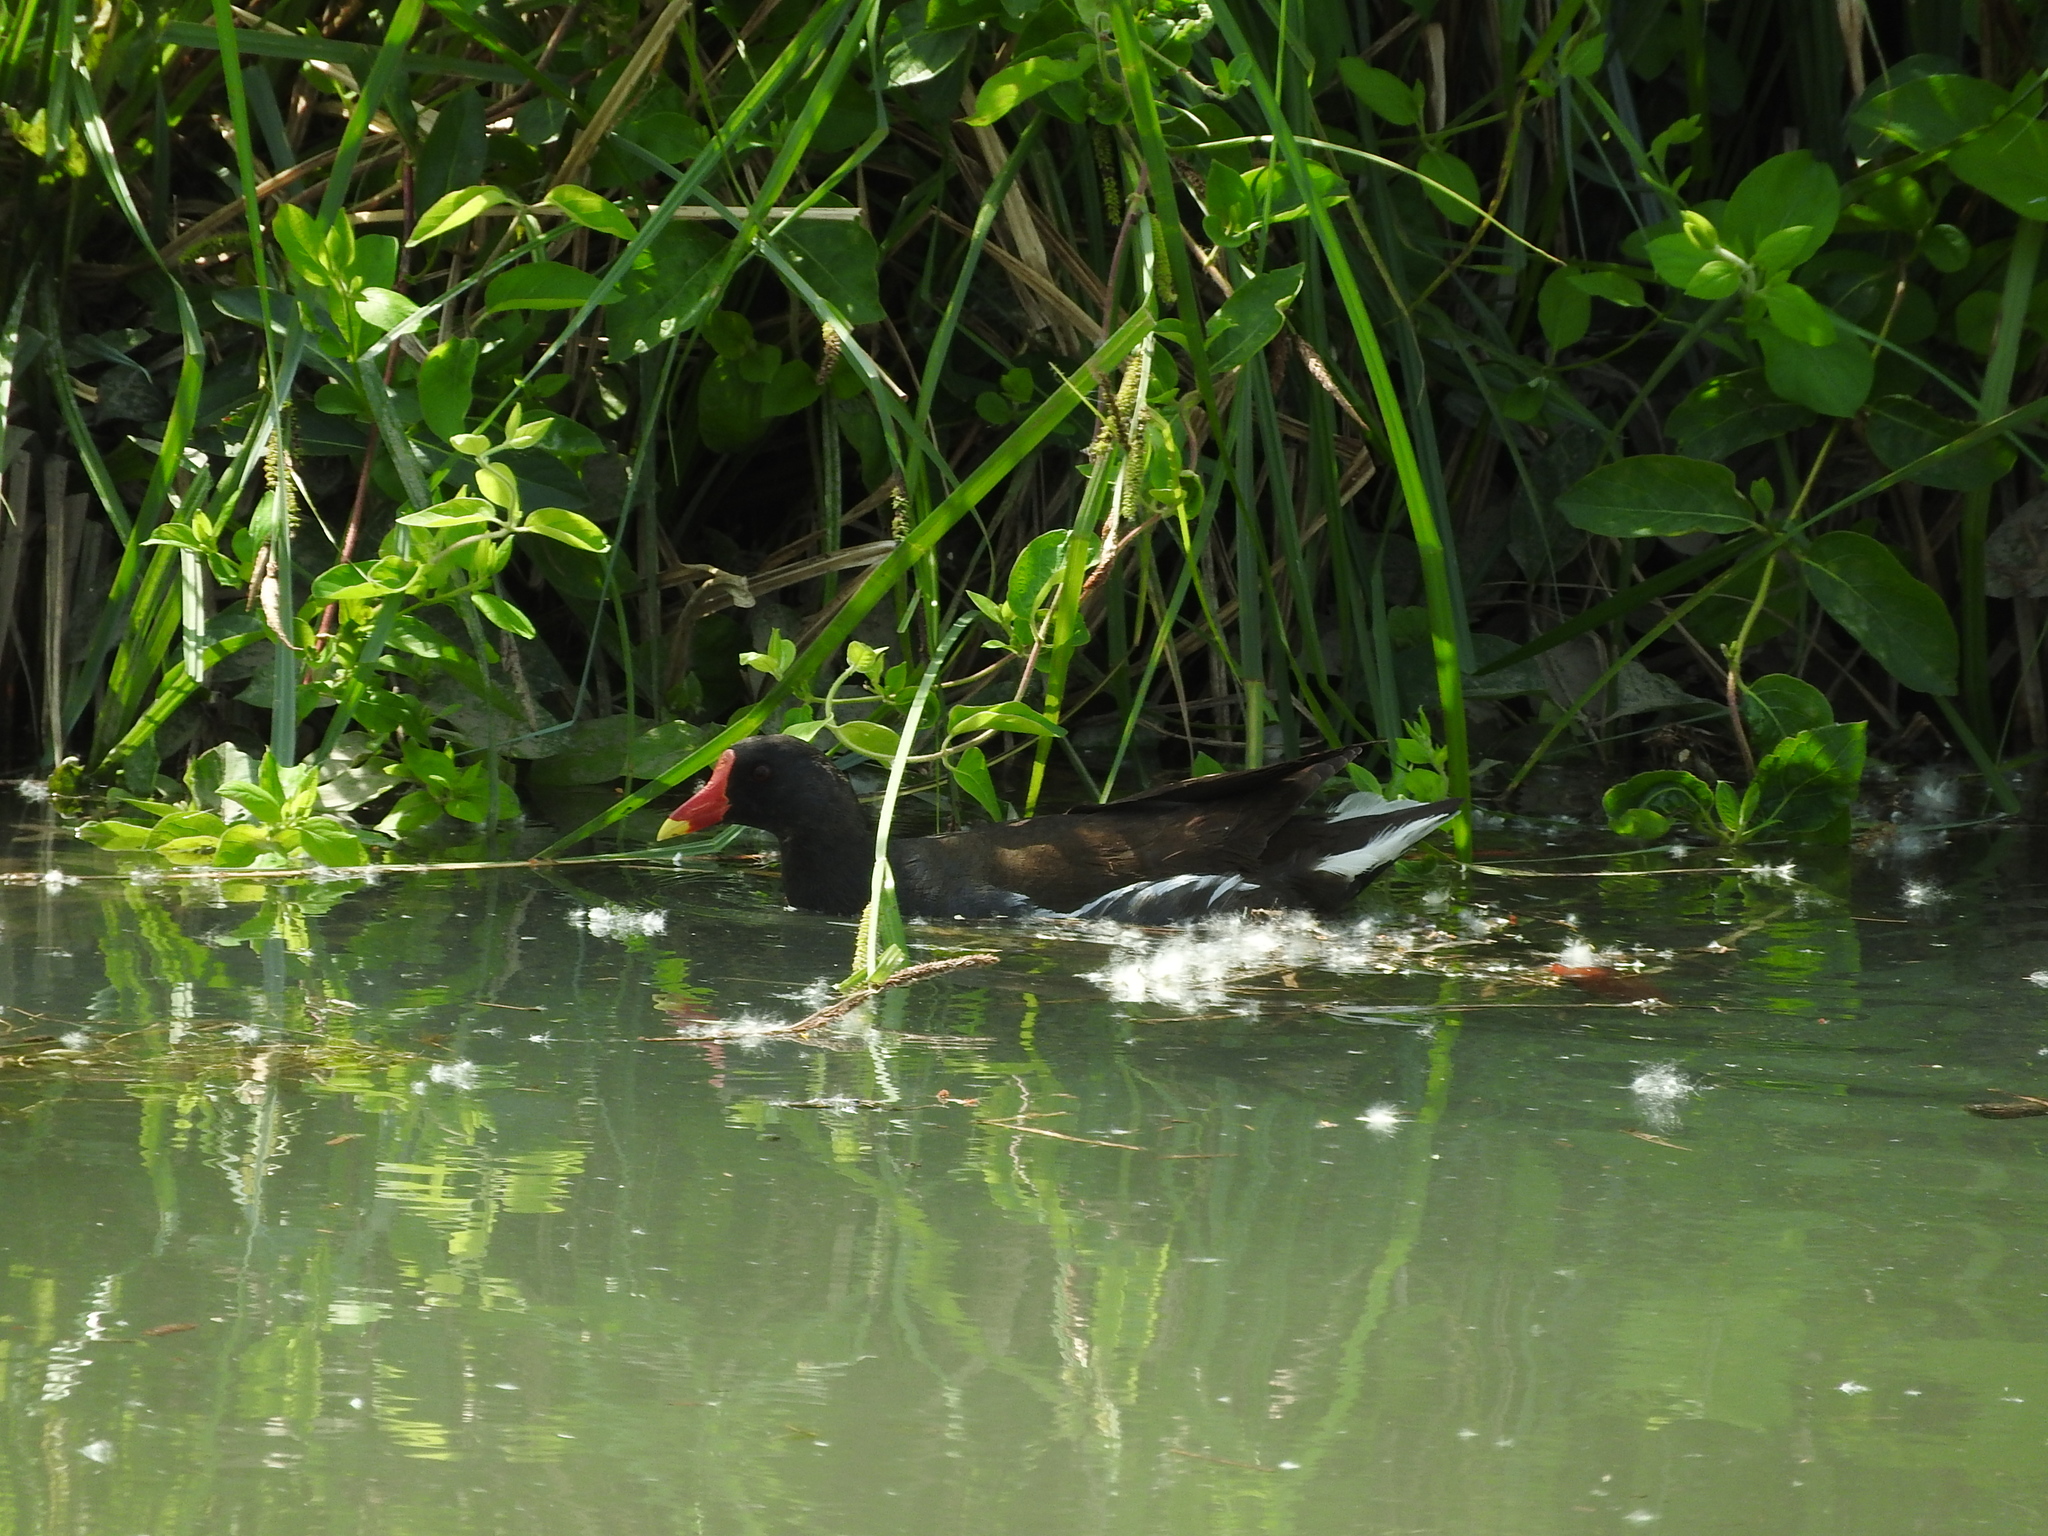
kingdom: Animalia
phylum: Chordata
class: Aves
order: Gruiformes
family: Rallidae
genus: Gallinula
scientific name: Gallinula chloropus
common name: Common moorhen
